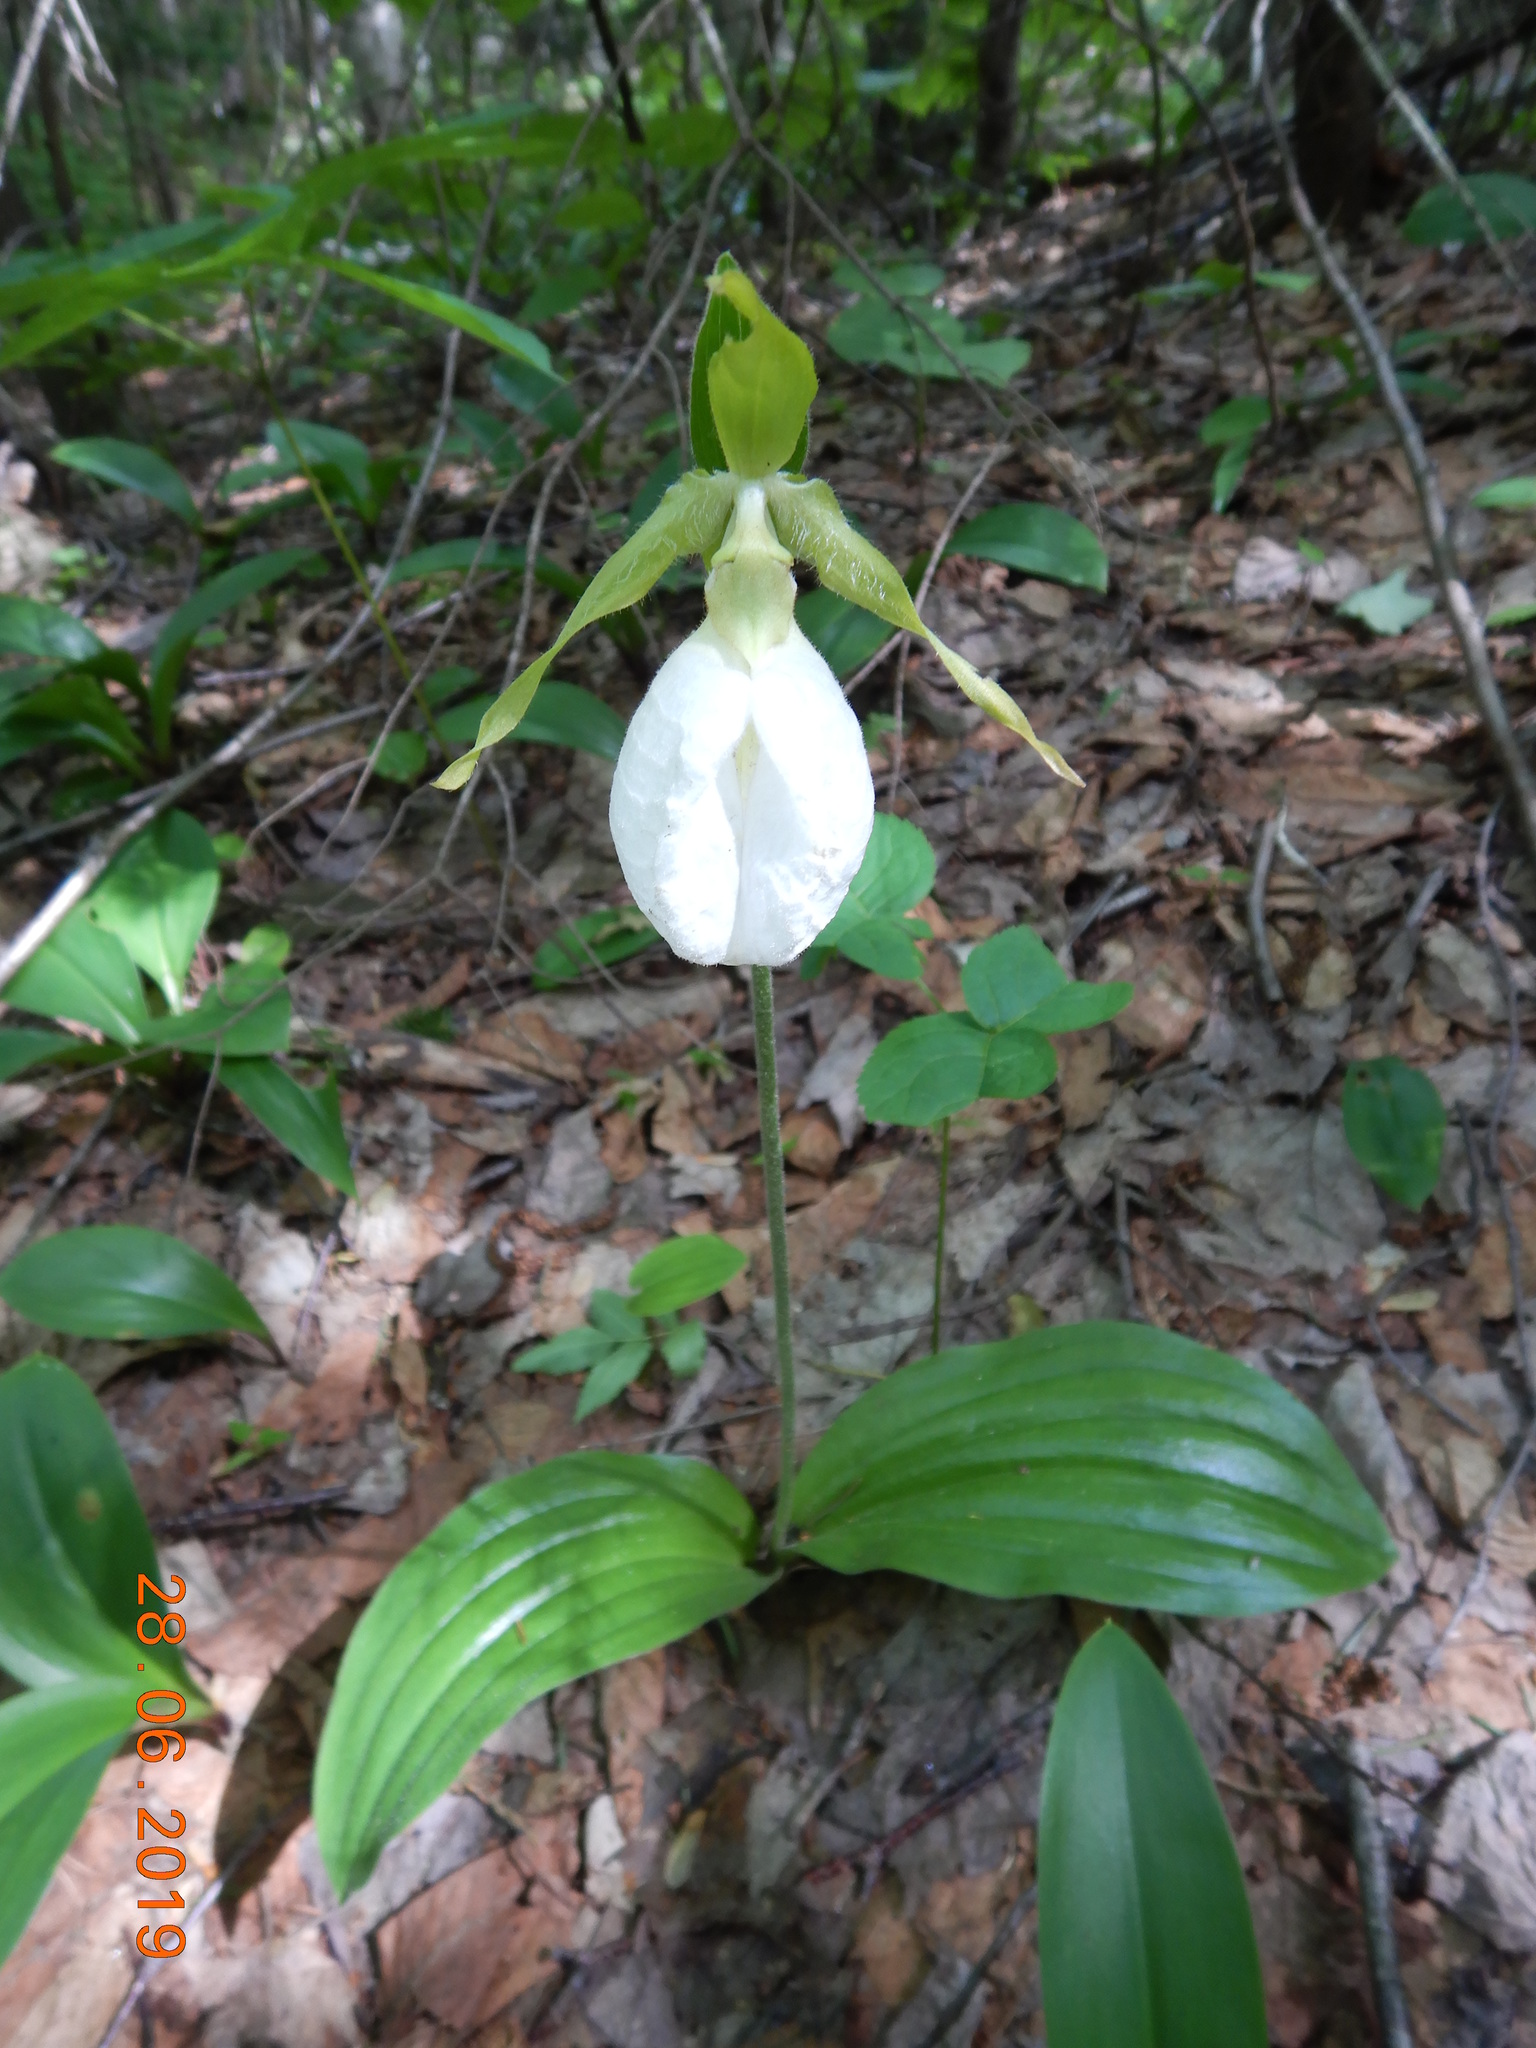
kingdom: Plantae
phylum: Tracheophyta
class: Liliopsida
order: Asparagales
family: Orchidaceae
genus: Cypripedium
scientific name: Cypripedium acaule
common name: Pink lady's-slipper
